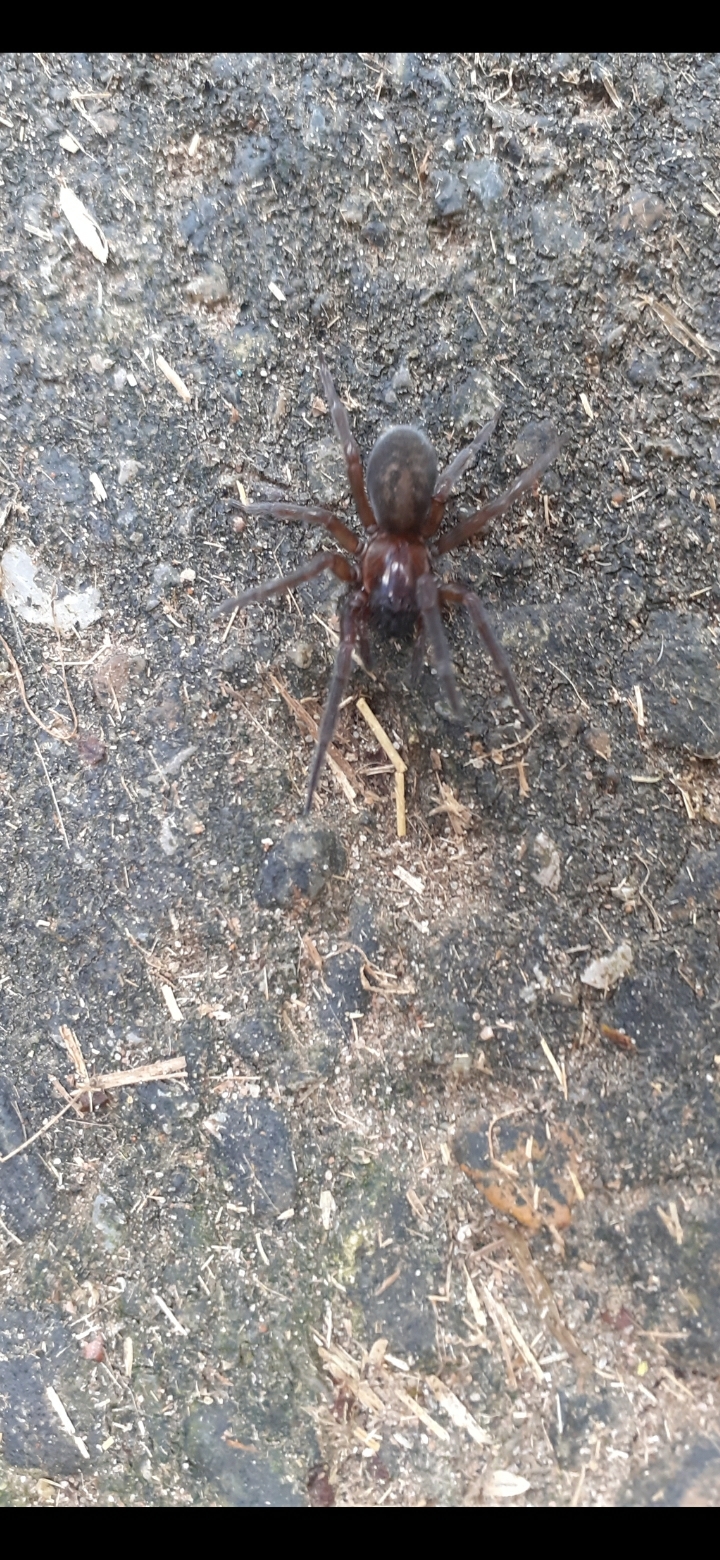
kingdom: Animalia
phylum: Arthropoda
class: Arachnida
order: Araneae
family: Amaurobiidae
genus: Amaurobius
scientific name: Amaurobius ferox
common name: Black laceweaver
